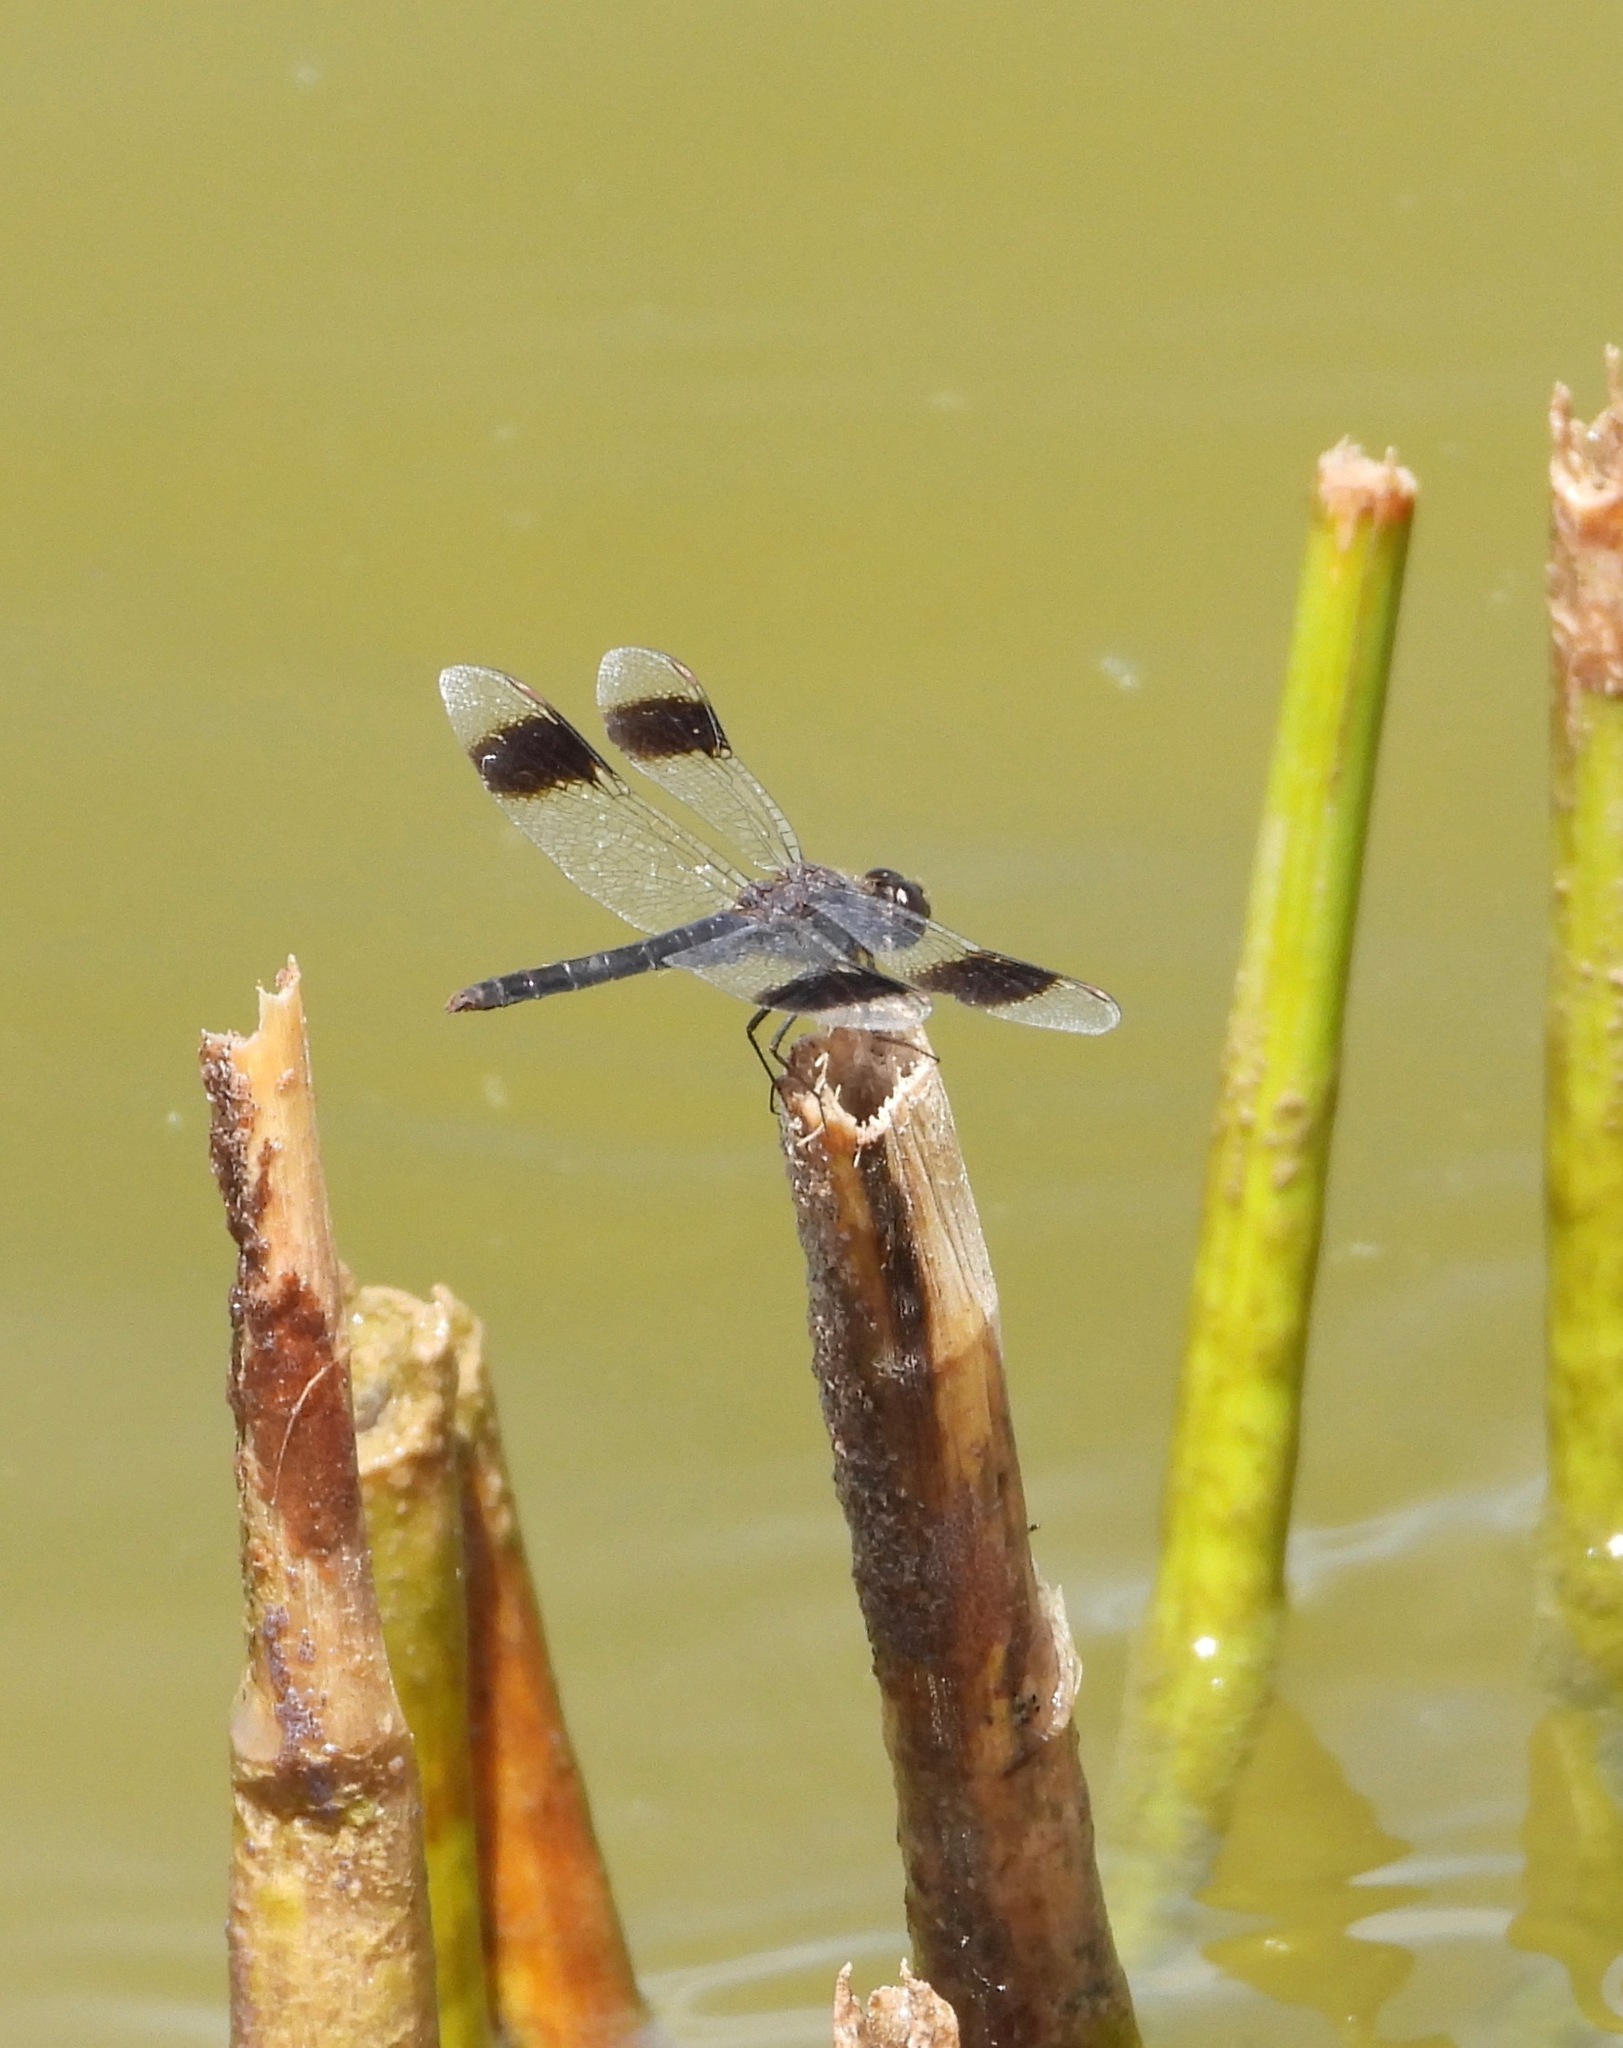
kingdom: Animalia
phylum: Arthropoda
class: Insecta
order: Odonata
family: Libellulidae
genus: Brachythemis
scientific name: Brachythemis leucosticta
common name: Banded groundling
